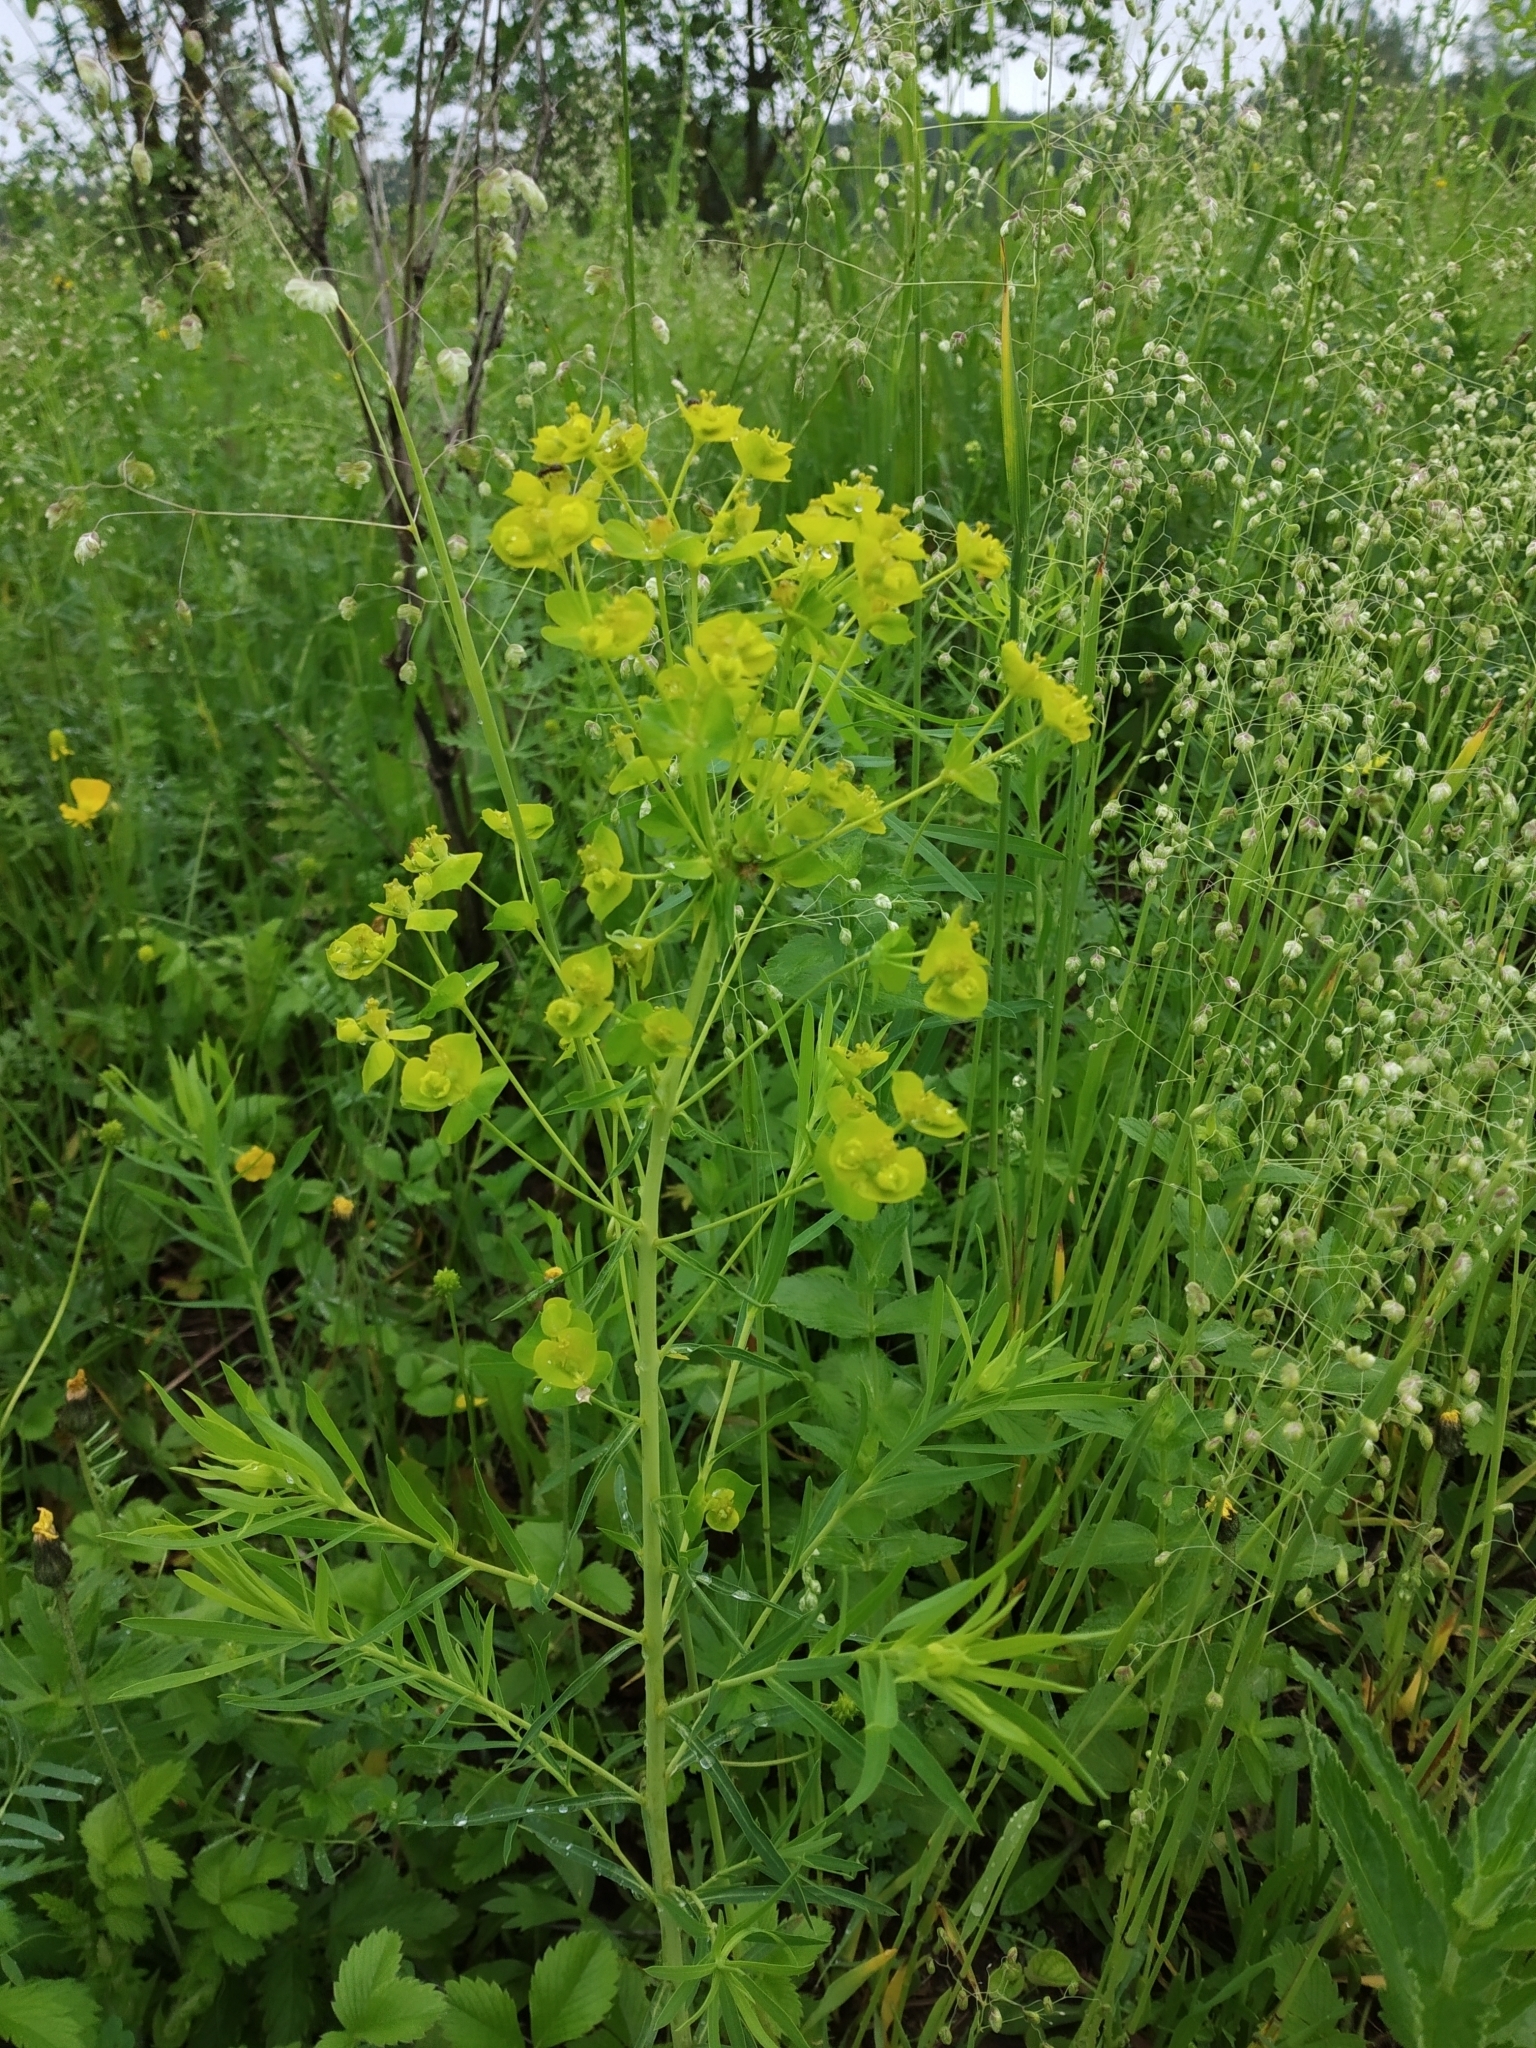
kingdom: Plantae
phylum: Tracheophyta
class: Magnoliopsida
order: Malpighiales
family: Euphorbiaceae
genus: Euphorbia
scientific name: Euphorbia virgata
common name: Leafy spurge
